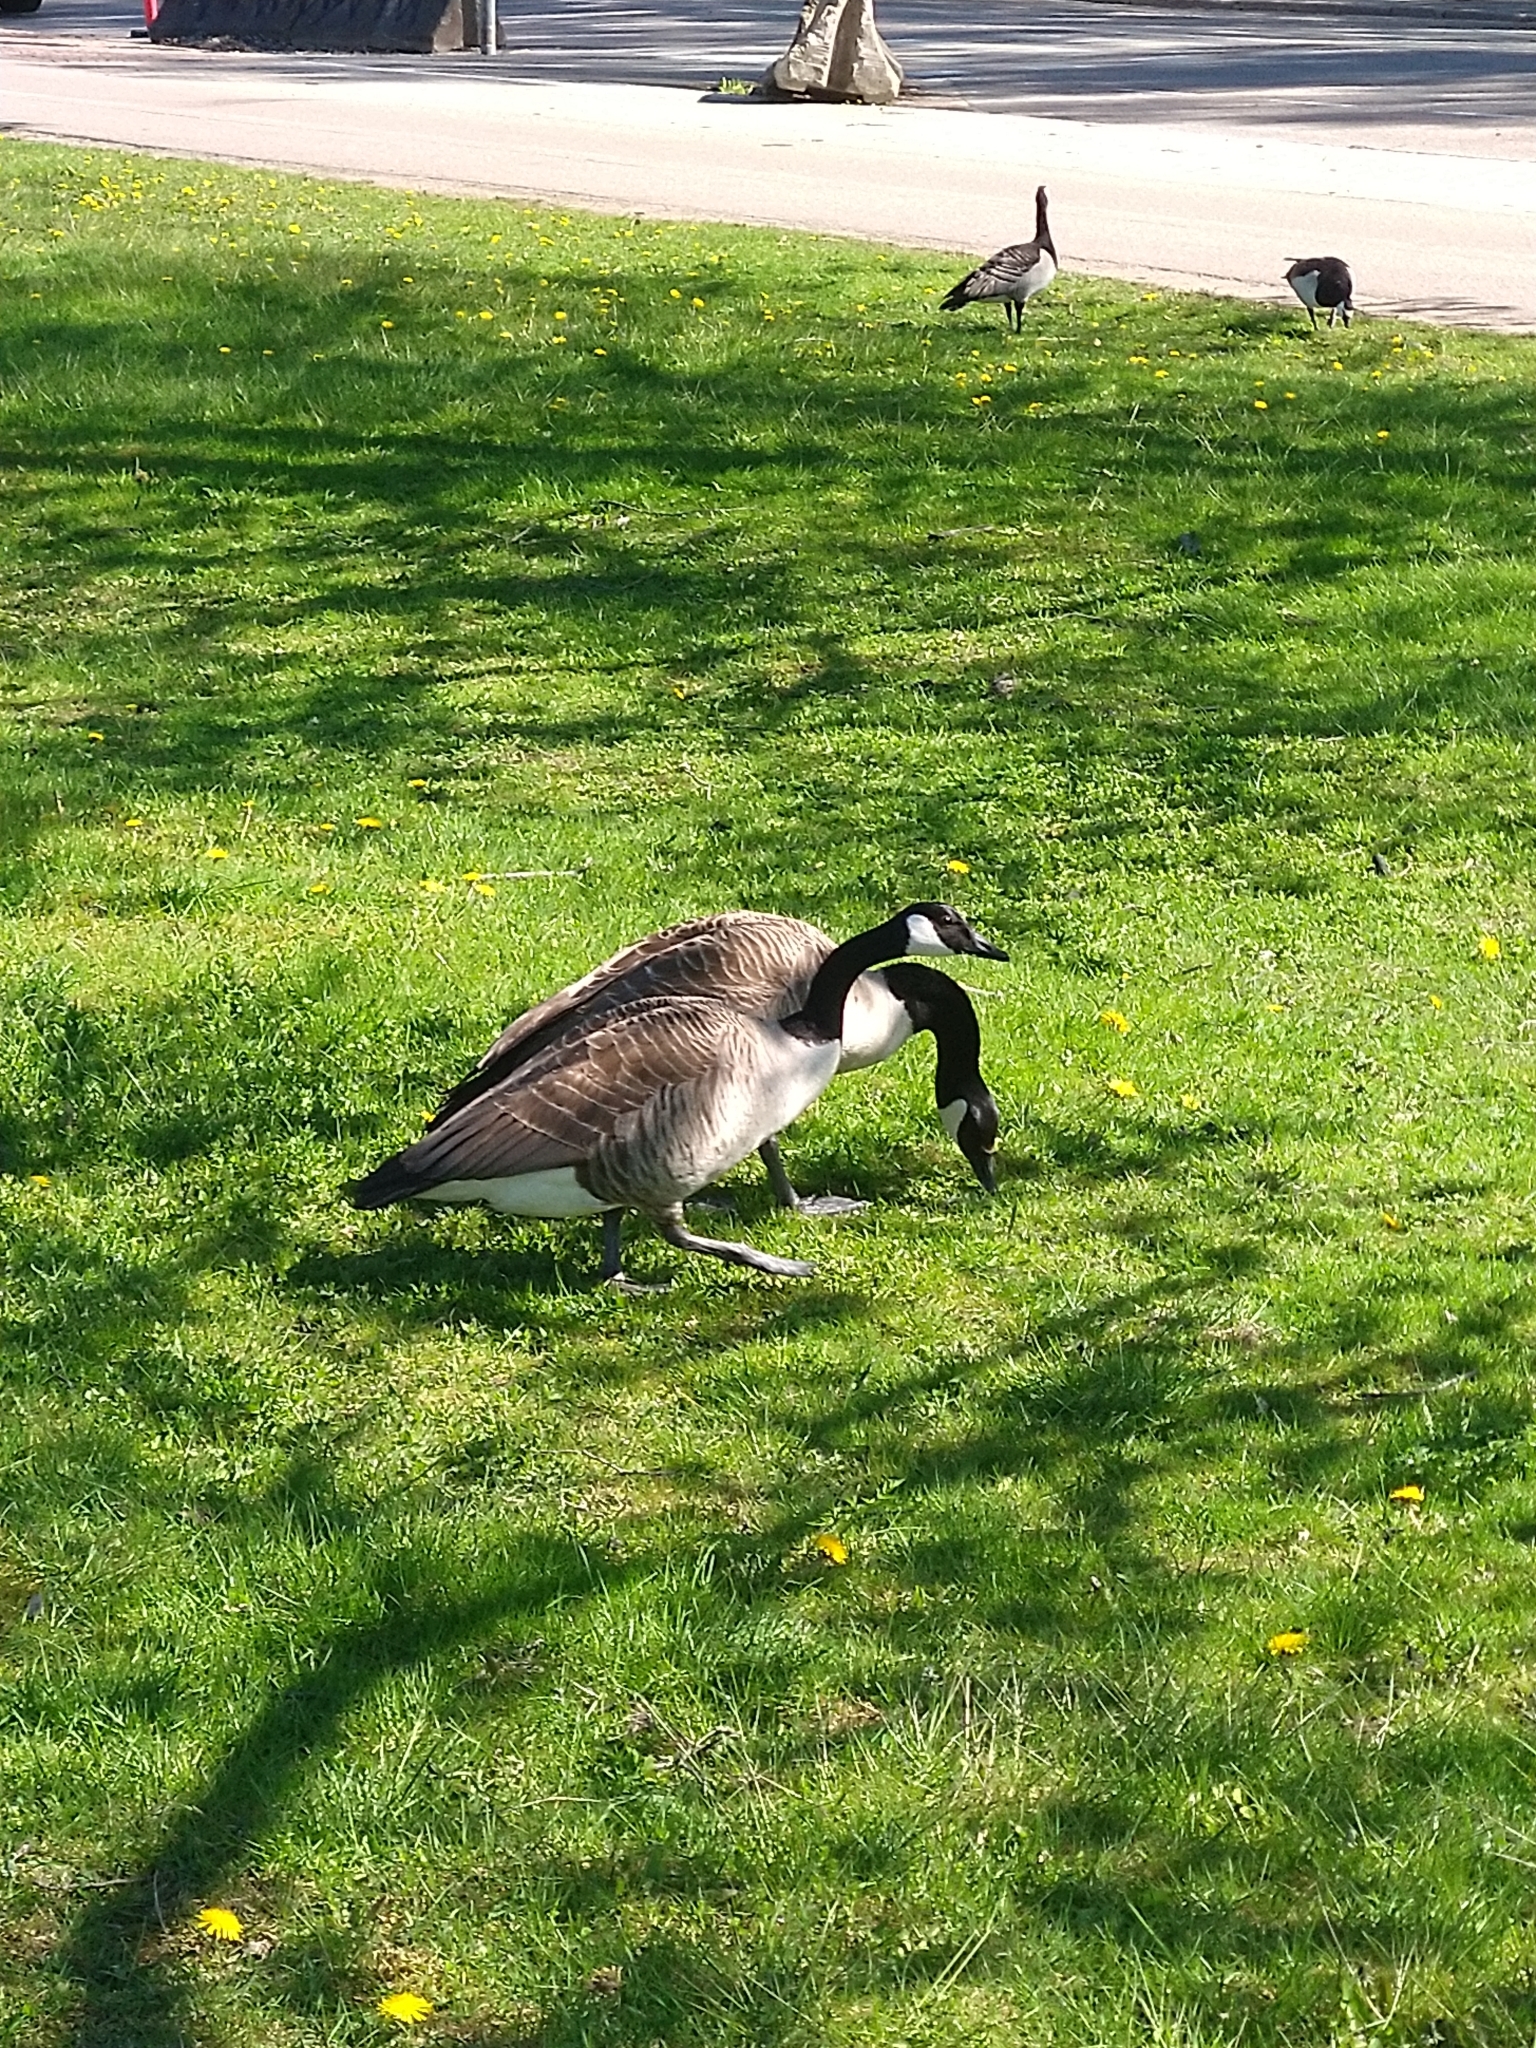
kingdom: Animalia
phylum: Chordata
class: Aves
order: Anseriformes
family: Anatidae
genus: Branta
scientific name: Branta canadensis
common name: Canada goose
